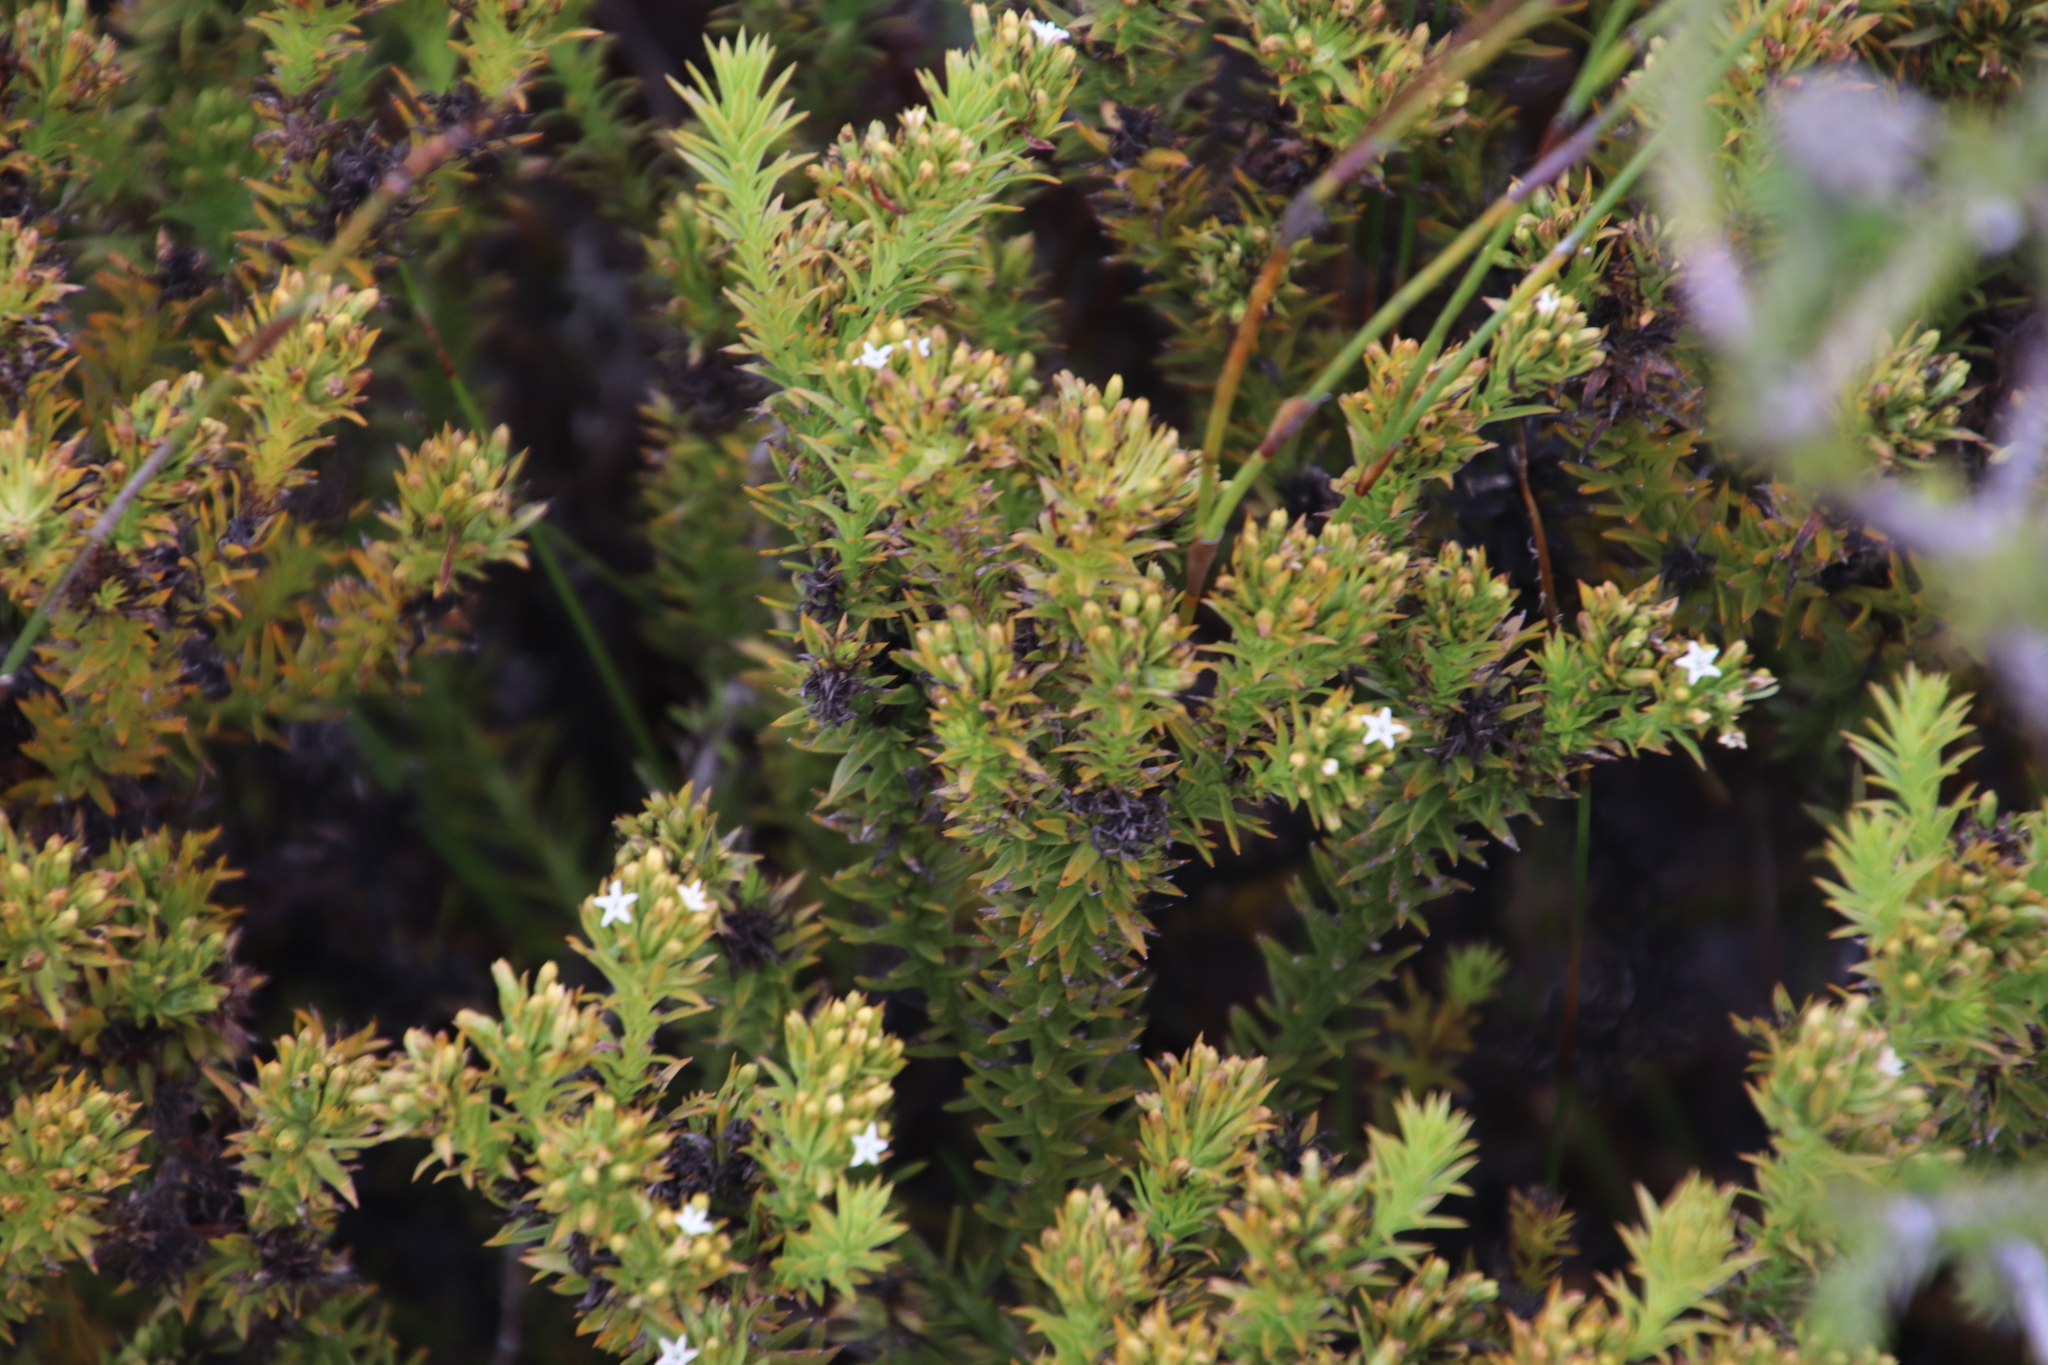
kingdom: Plantae
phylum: Tracheophyta
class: Magnoliopsida
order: Santalales
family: Thesiaceae
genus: Thesium
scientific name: Thesium viridifolium
